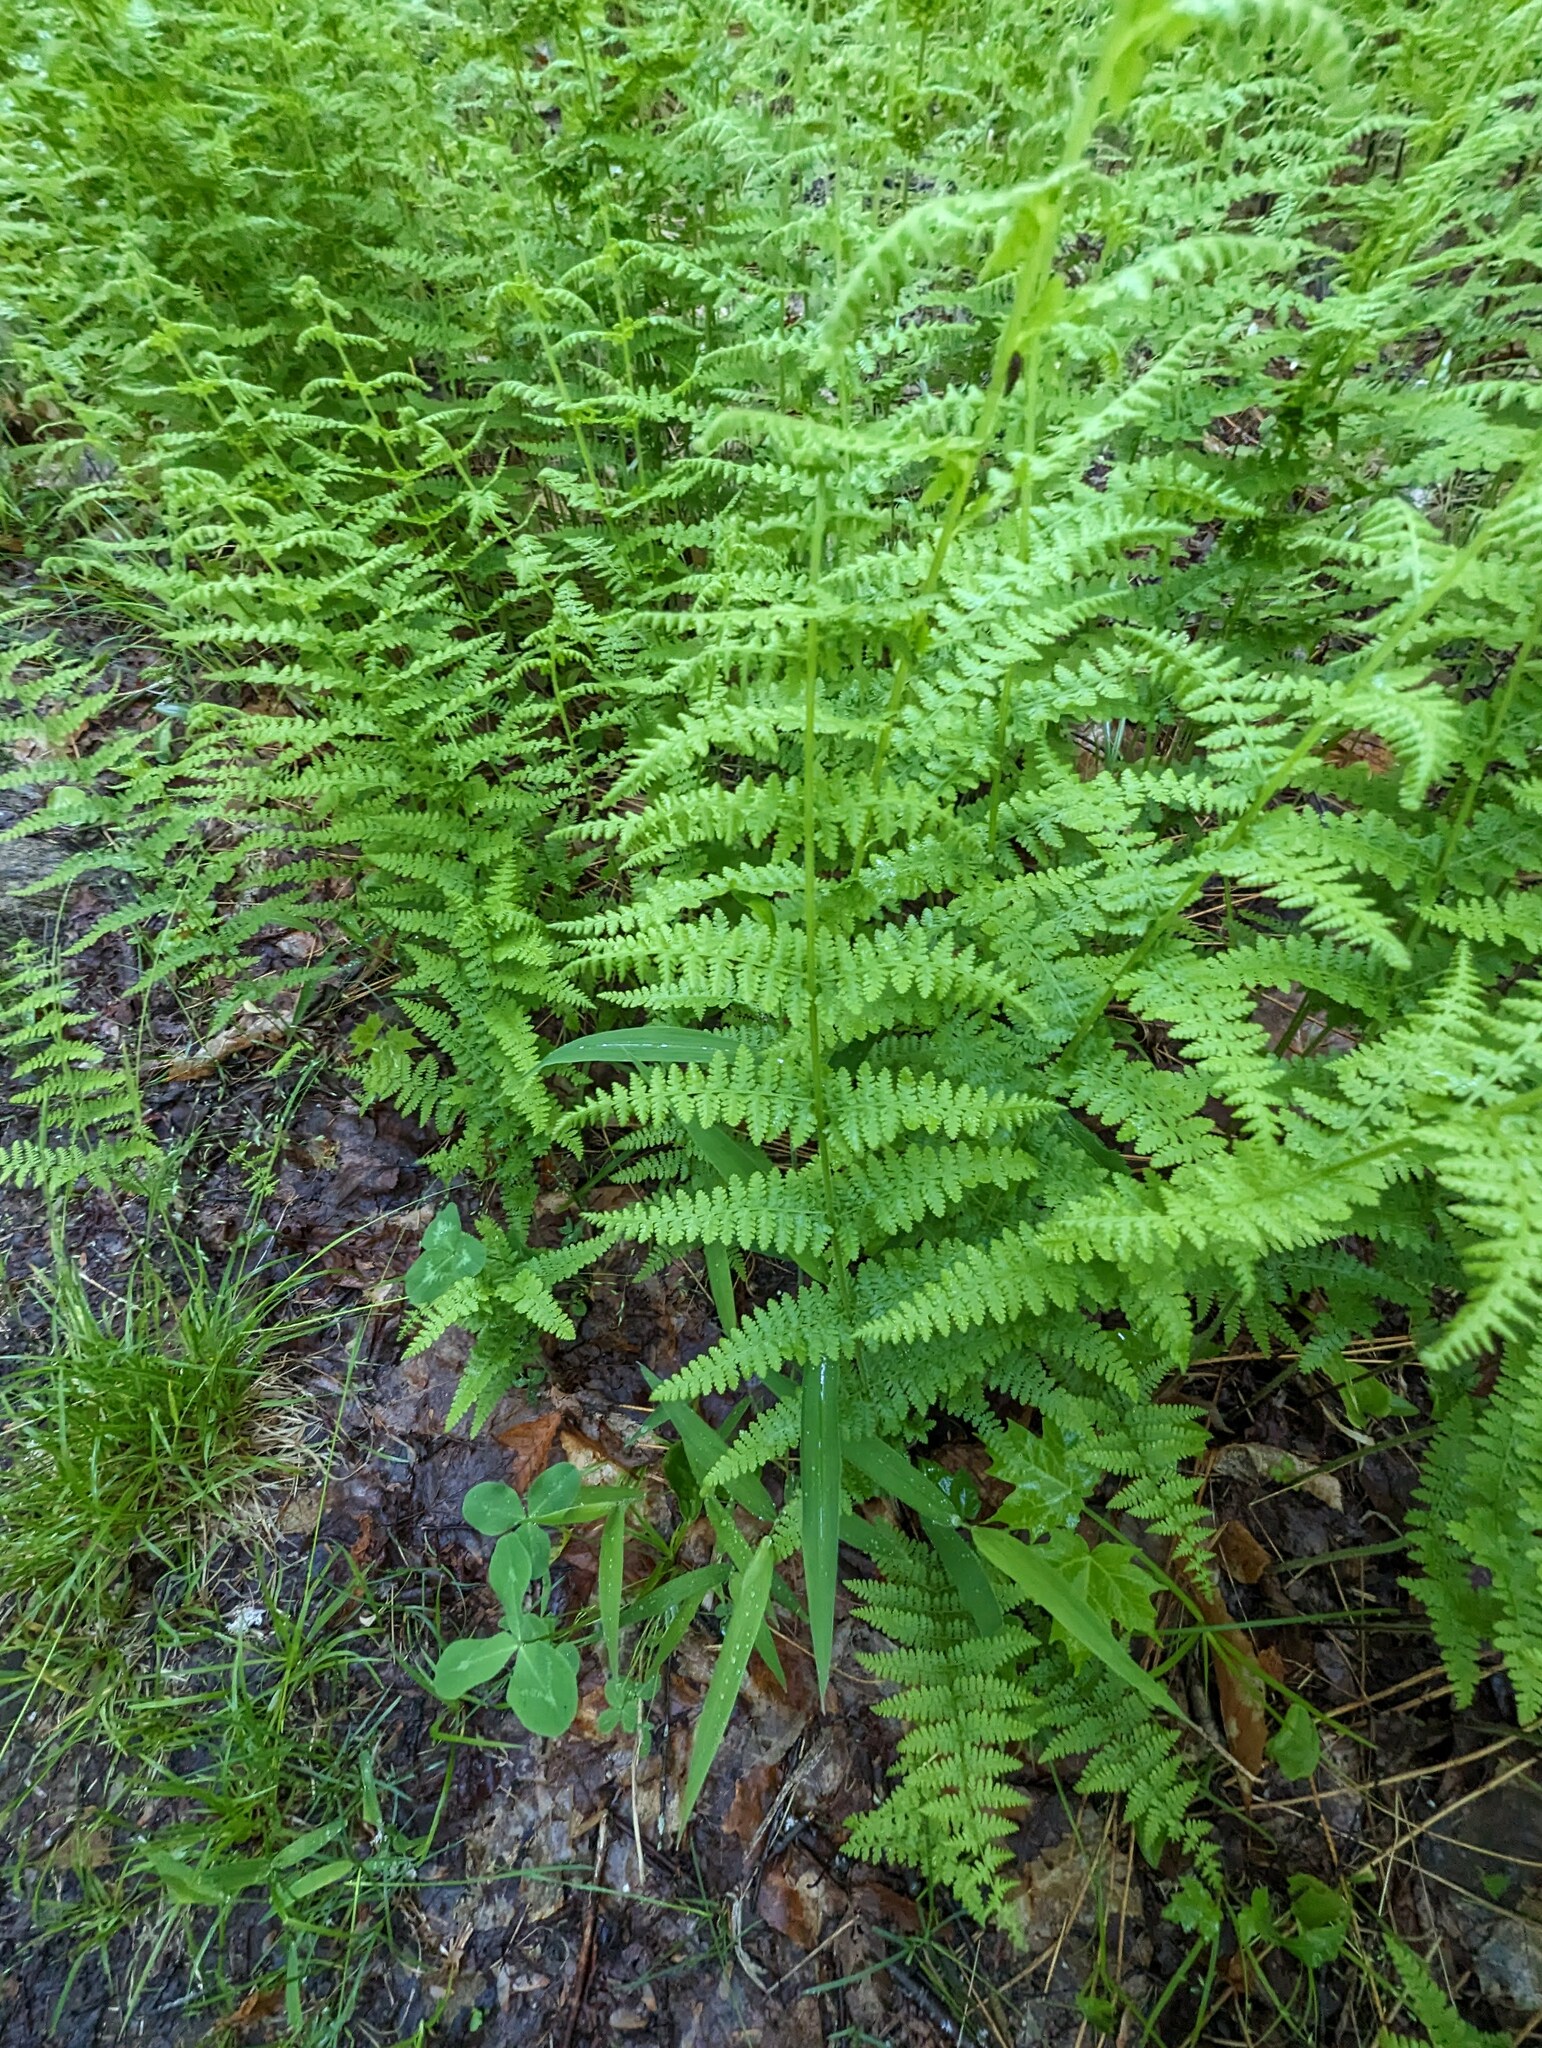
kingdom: Plantae
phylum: Tracheophyta
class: Polypodiopsida
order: Polypodiales
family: Dennstaedtiaceae
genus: Sitobolium
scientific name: Sitobolium punctilobum
